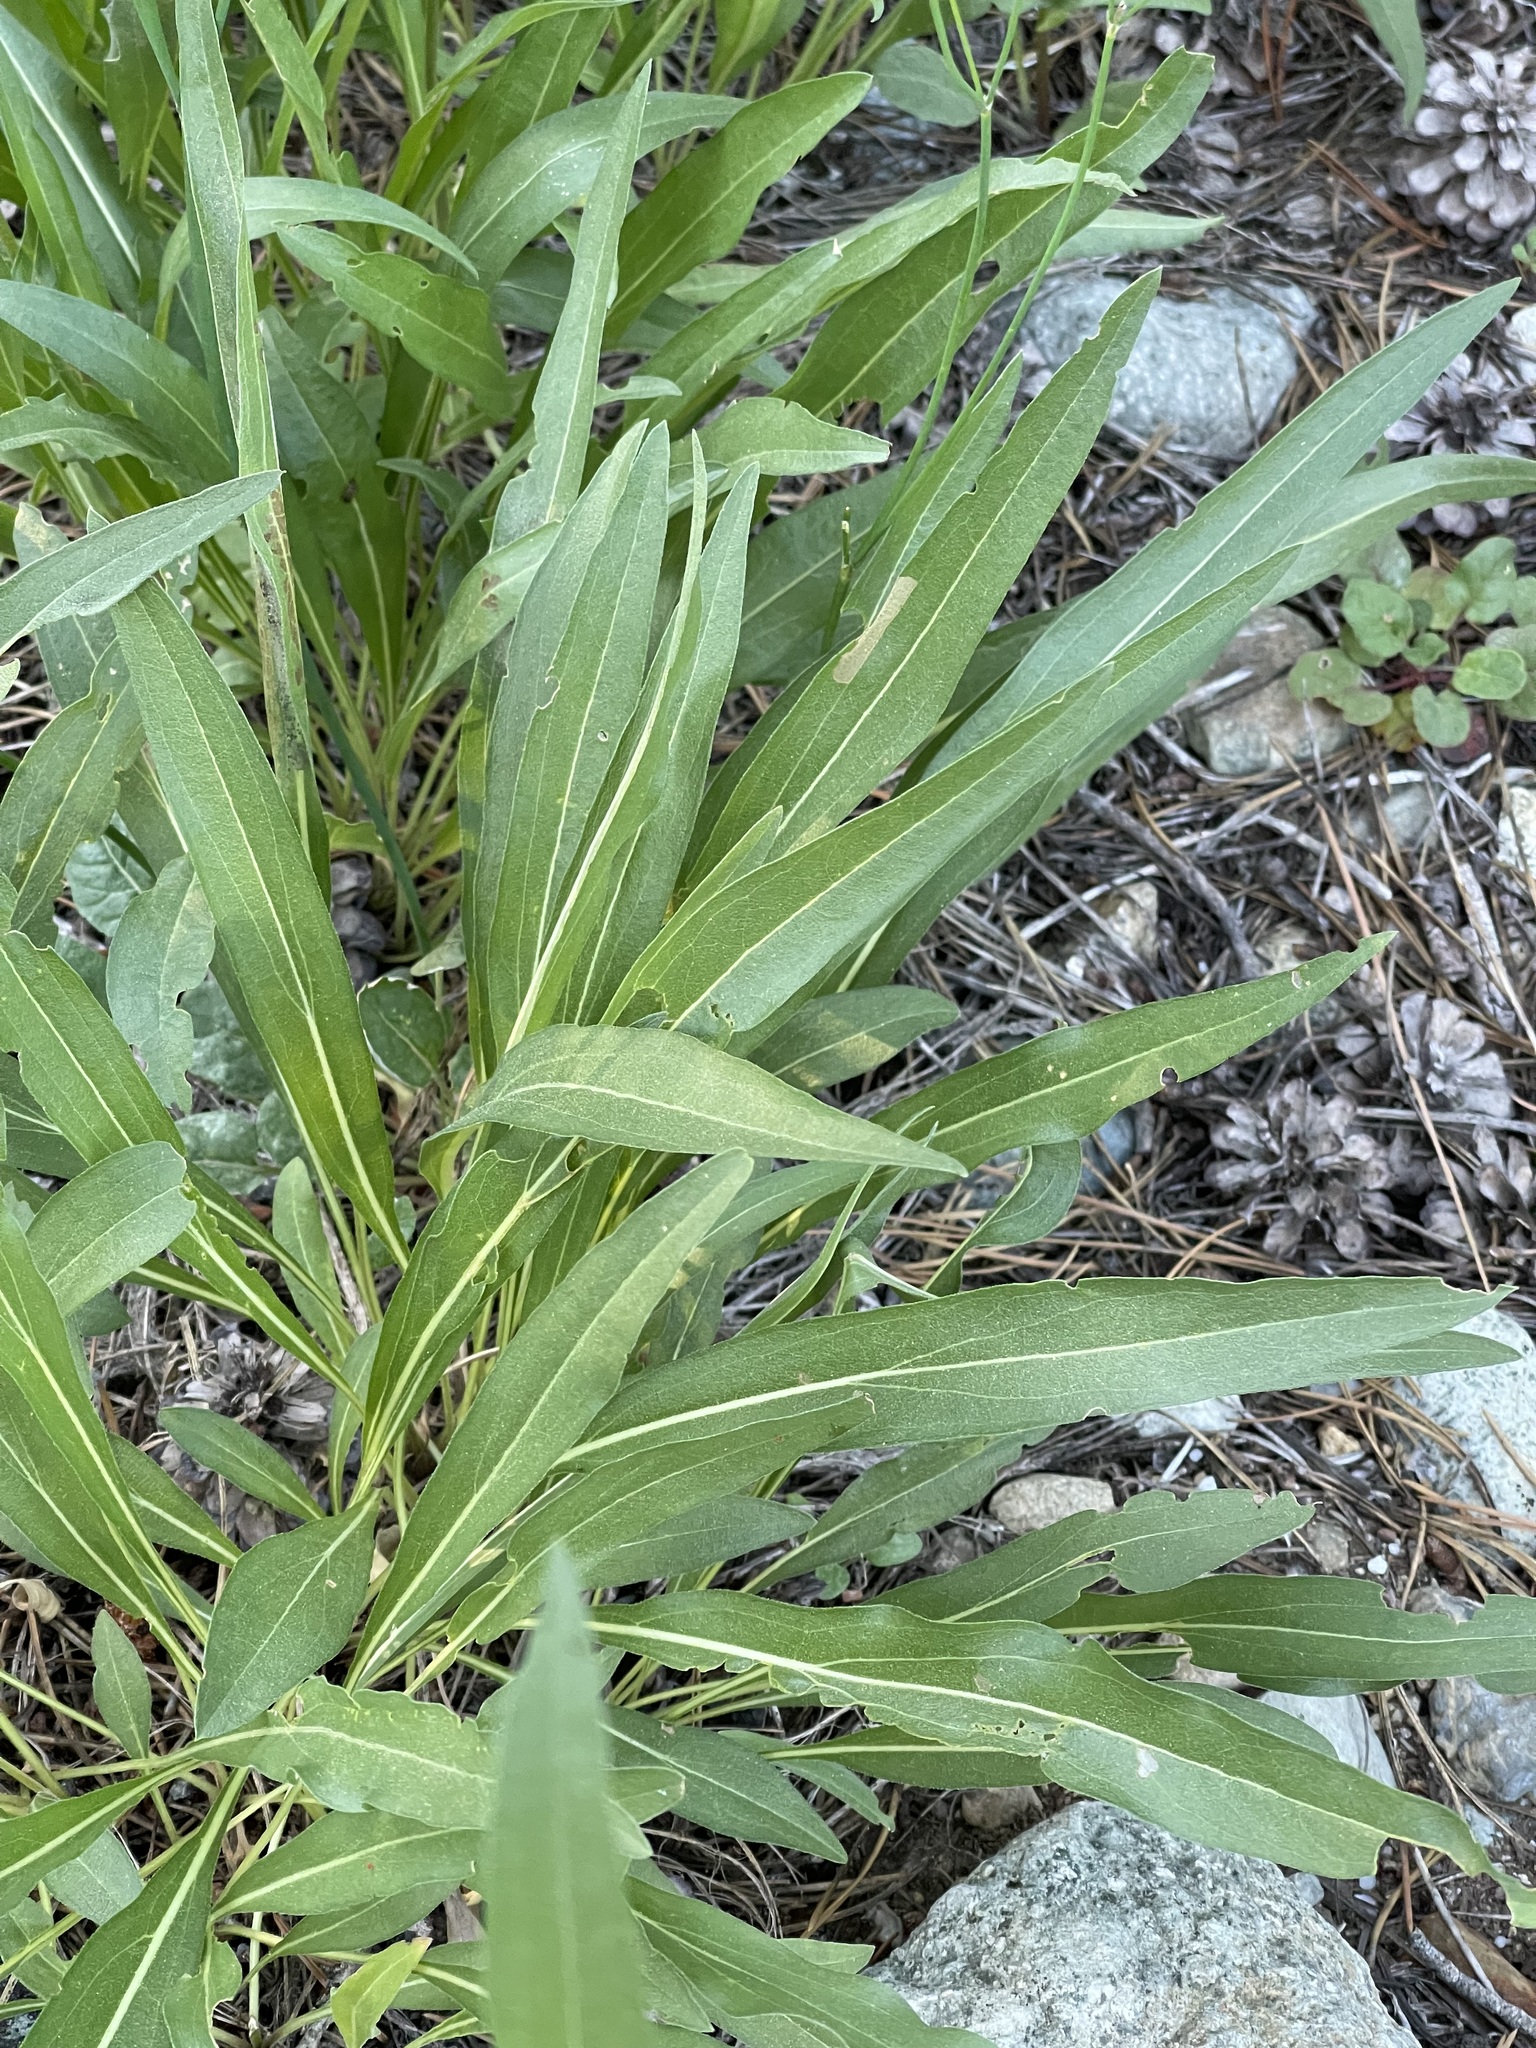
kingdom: Plantae
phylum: Tracheophyta
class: Magnoliopsida
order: Asterales
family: Asteraceae
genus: Helianthella
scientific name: Helianthella californica
